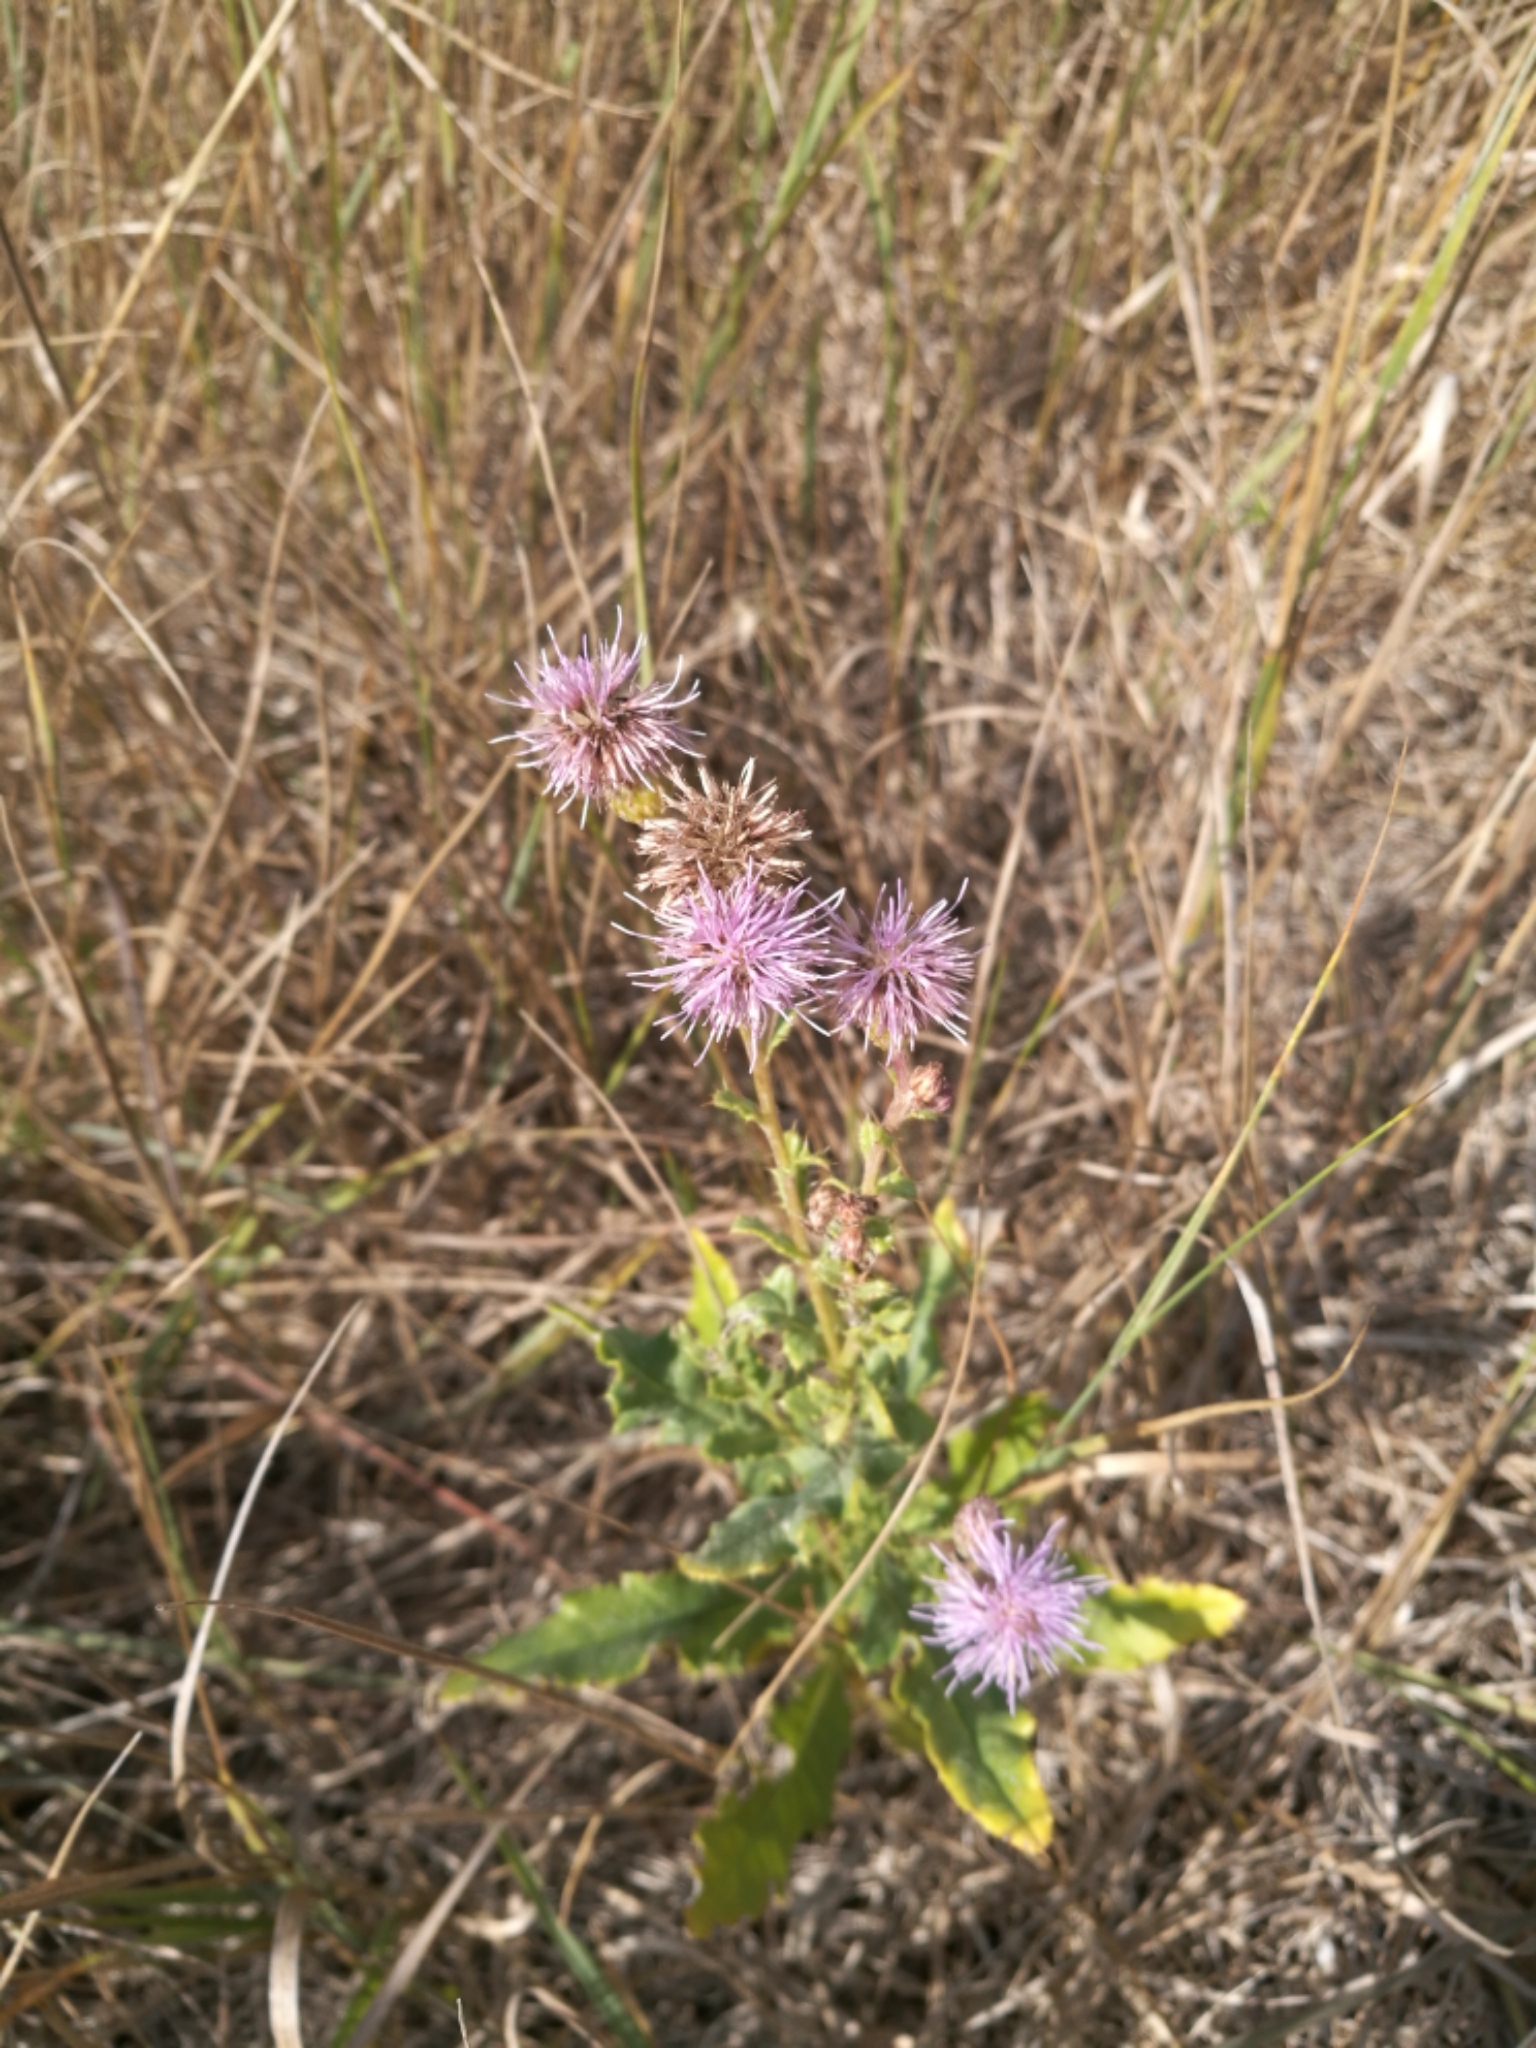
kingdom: Plantae
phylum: Tracheophyta
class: Magnoliopsida
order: Asterales
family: Asteraceae
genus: Cirsium
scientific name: Cirsium arvense
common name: Creeping thistle
